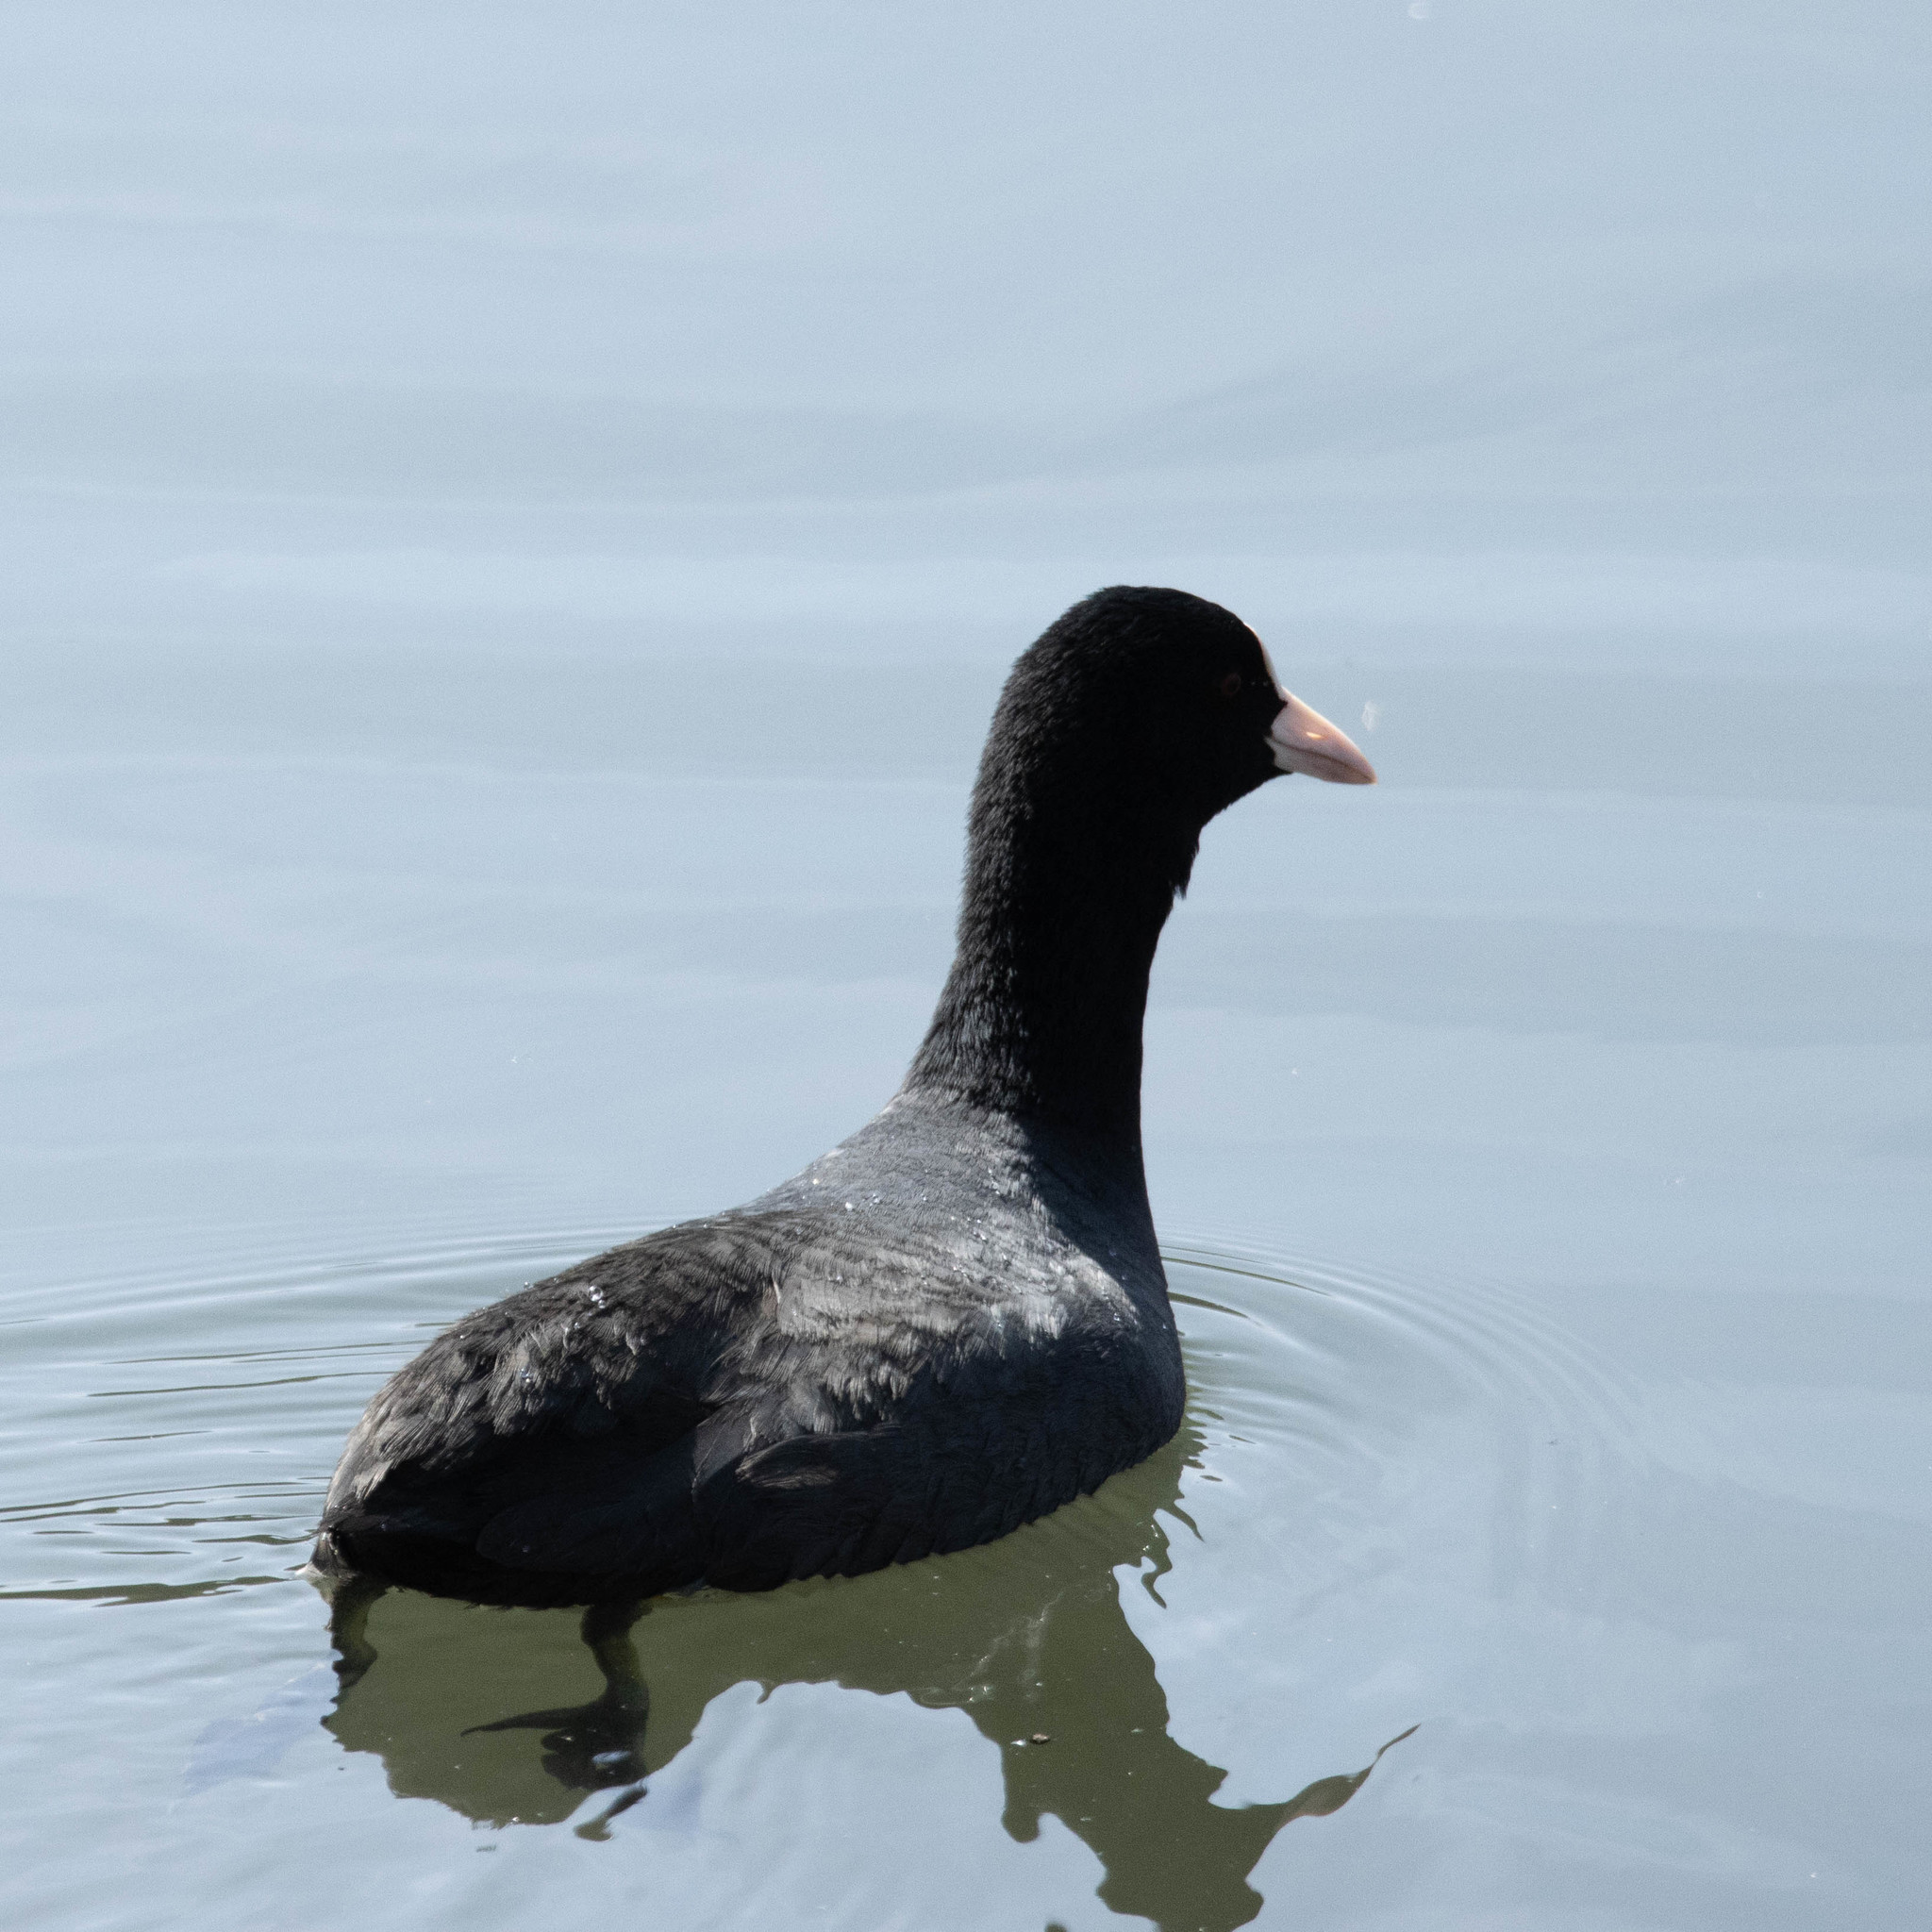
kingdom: Animalia
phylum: Chordata
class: Aves
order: Gruiformes
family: Rallidae
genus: Fulica
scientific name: Fulica atra
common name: Eurasian coot
